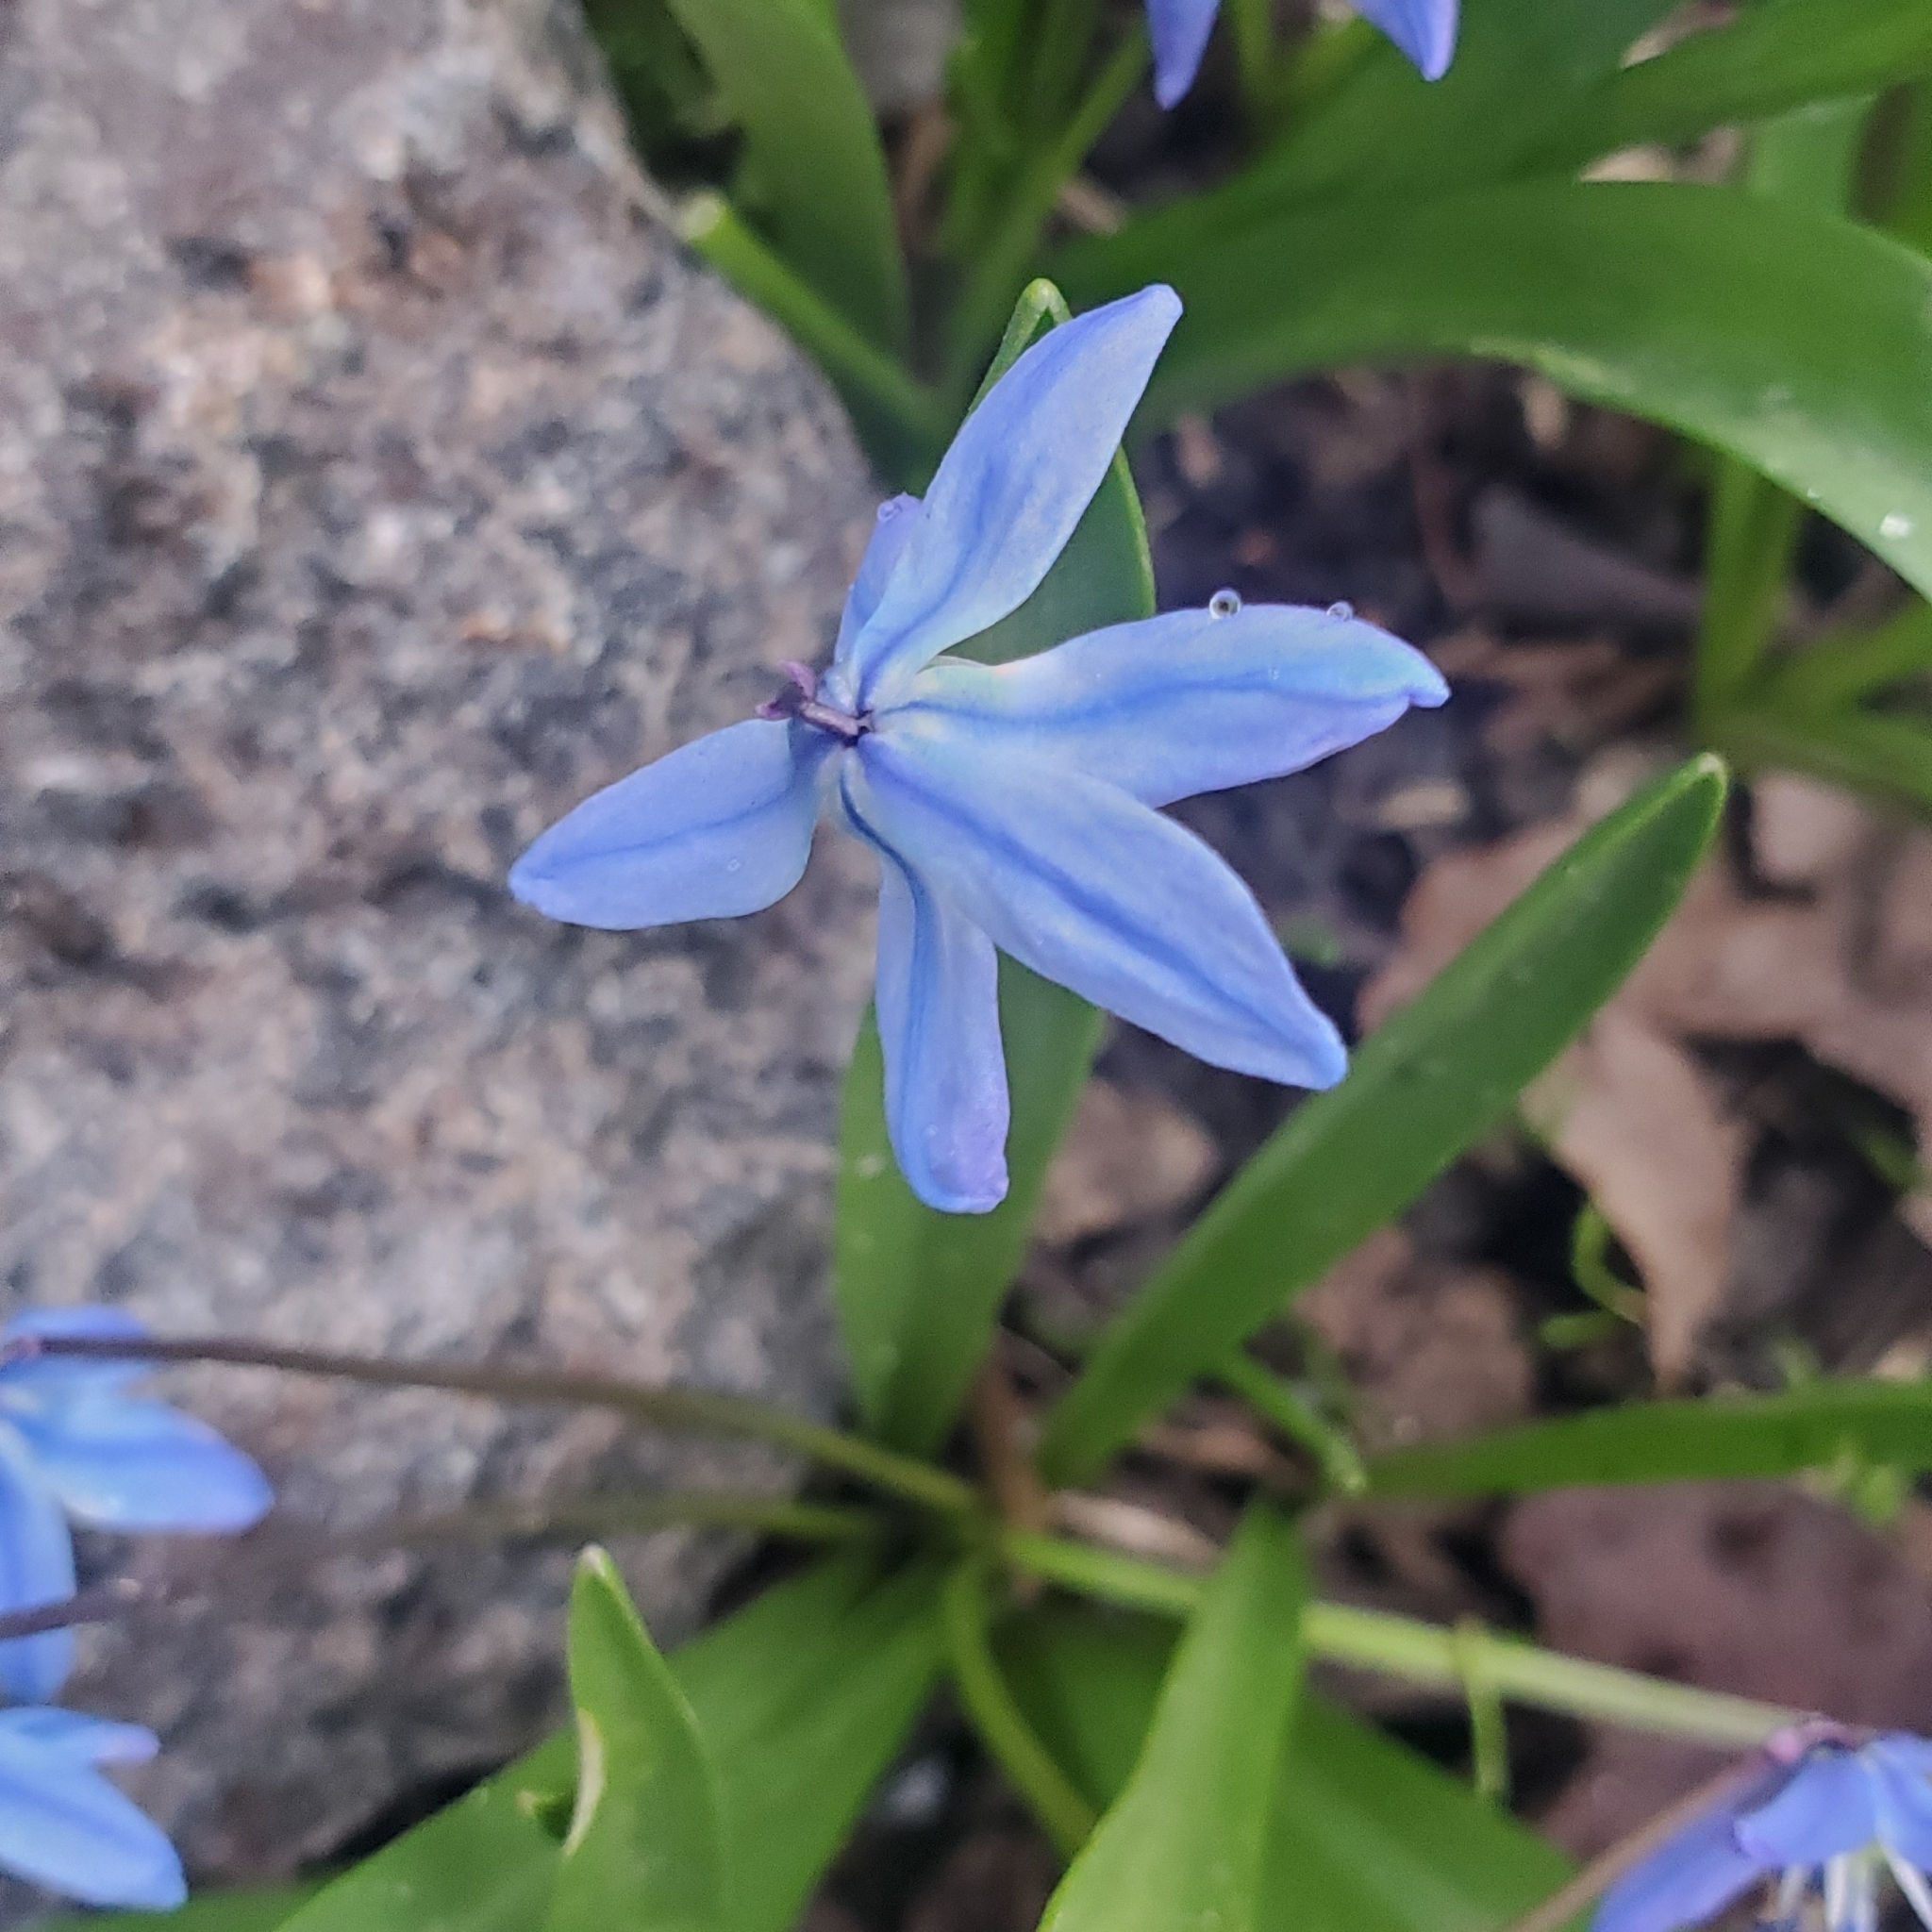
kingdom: Plantae
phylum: Tracheophyta
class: Liliopsida
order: Asparagales
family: Asparagaceae
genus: Scilla
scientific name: Scilla siberica
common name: Siberian squill
